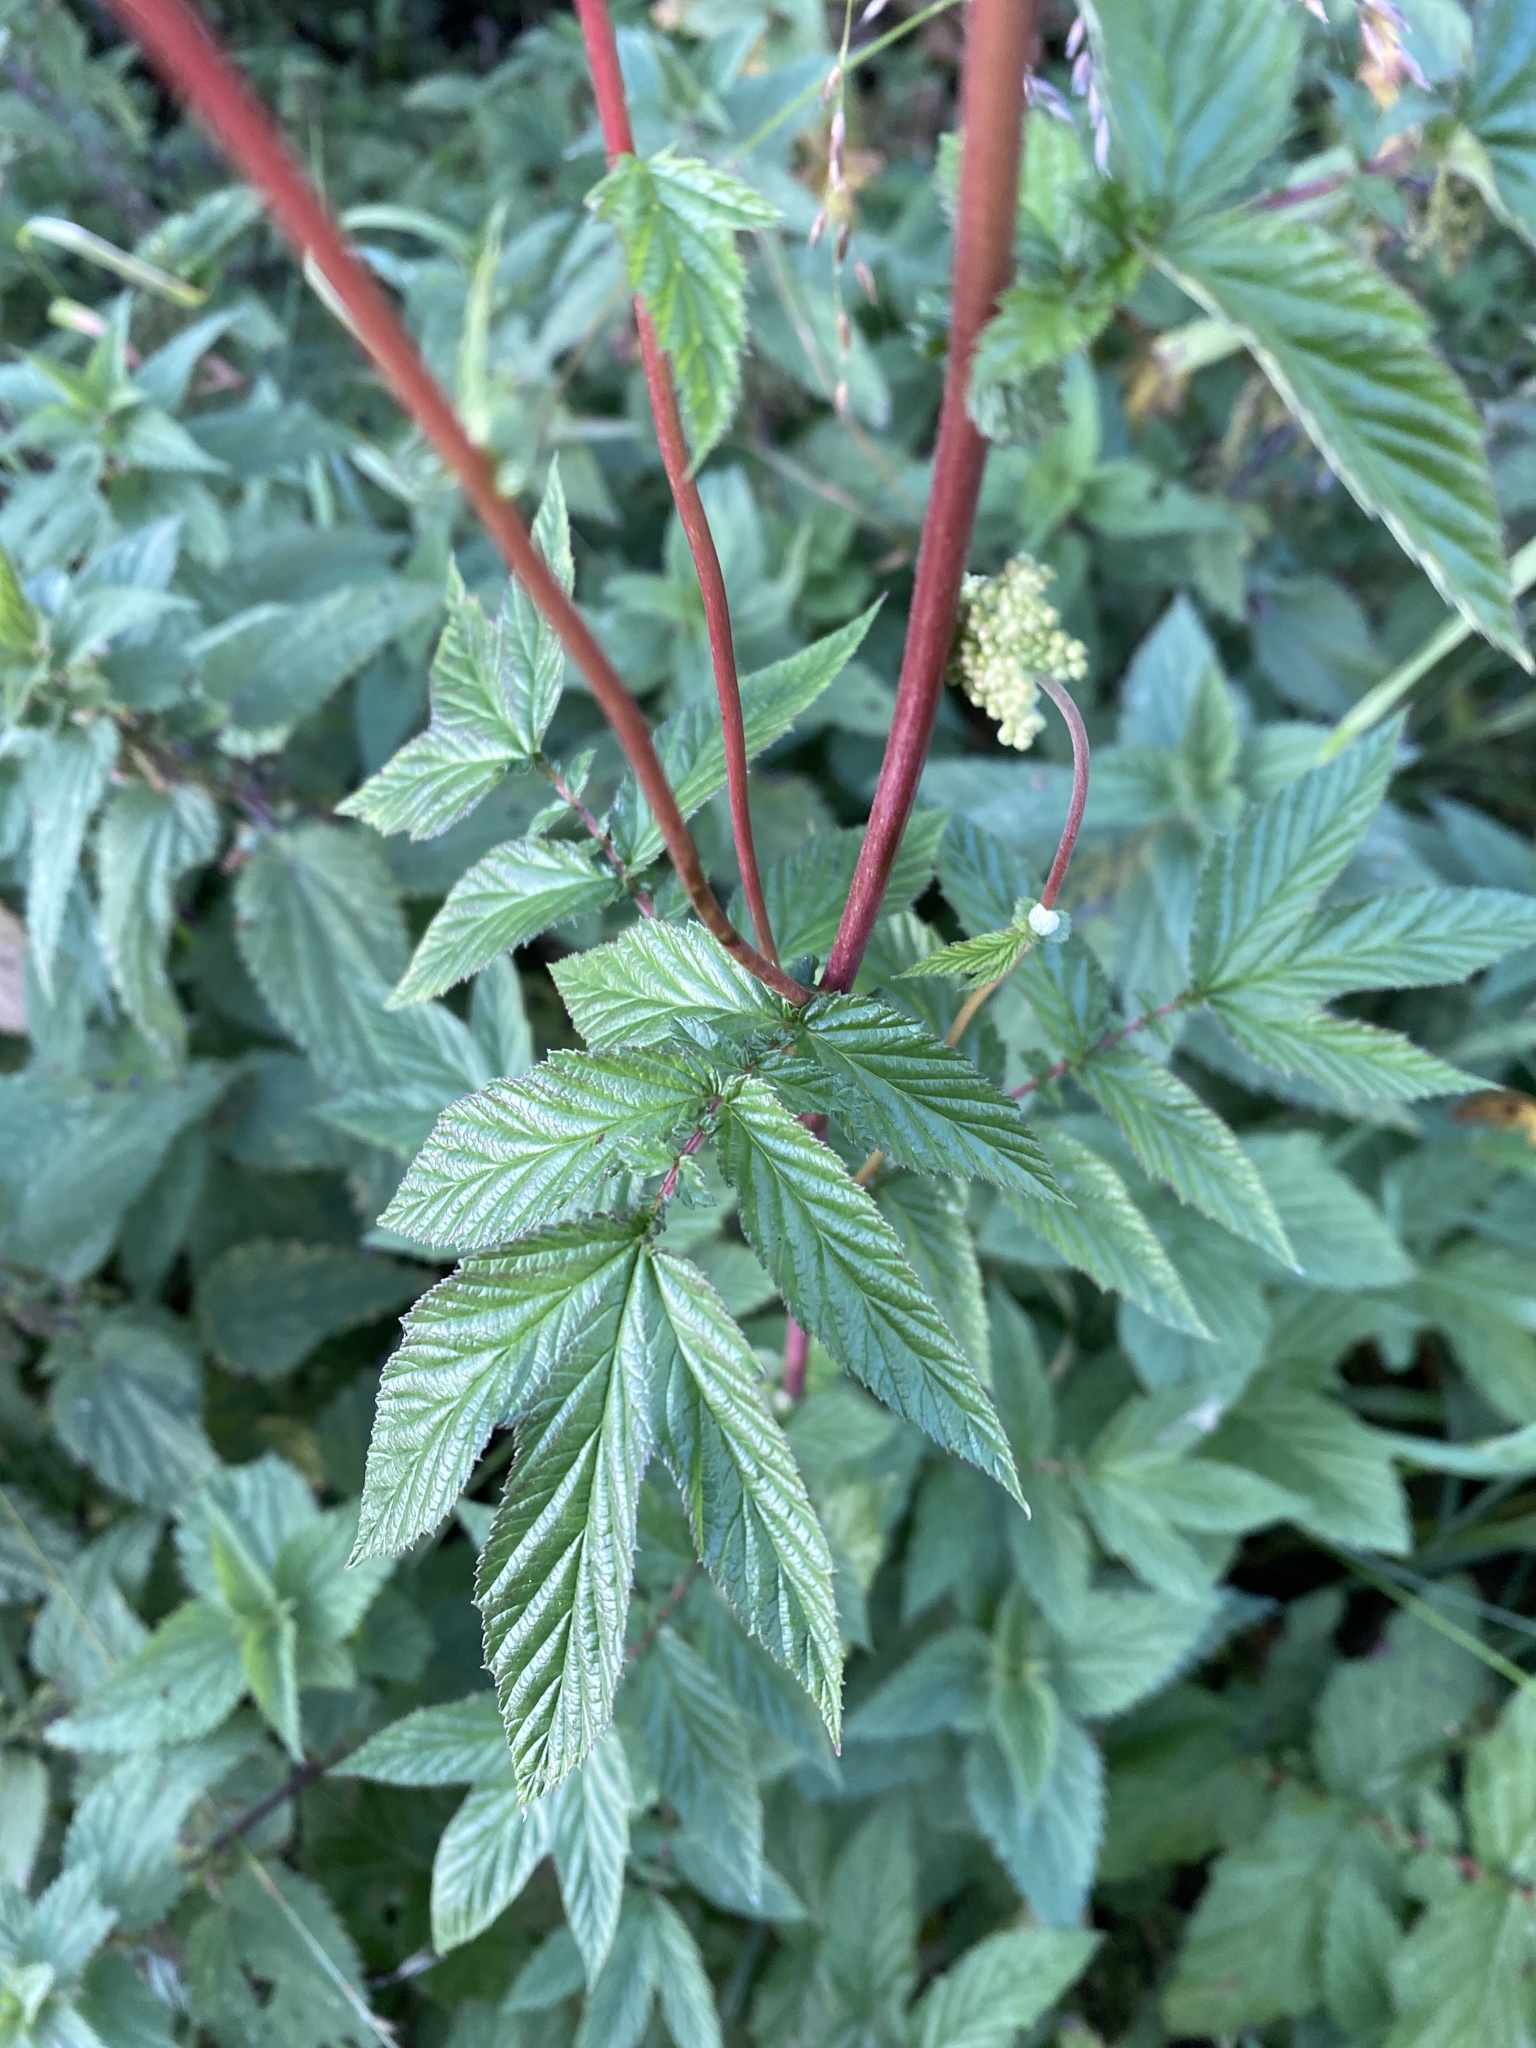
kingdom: Plantae
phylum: Tracheophyta
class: Magnoliopsida
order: Rosales
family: Rosaceae
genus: Filipendula
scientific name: Filipendula ulmaria
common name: Meadowsweet
